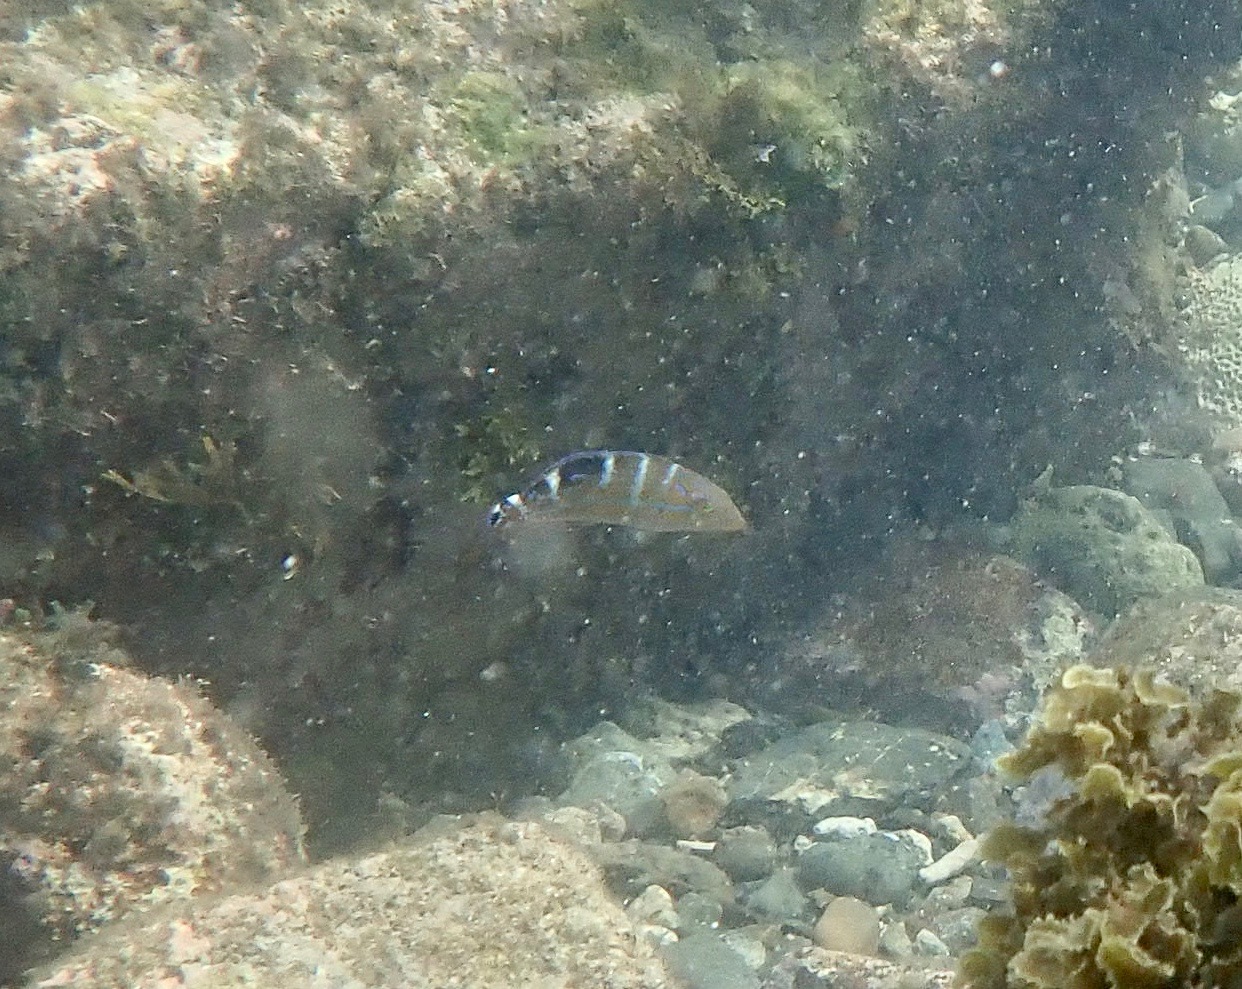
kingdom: Animalia
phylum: Chordata
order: Perciformes
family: Labridae
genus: Halichoeres
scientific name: Halichoeres radiatus
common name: Puddingwife
